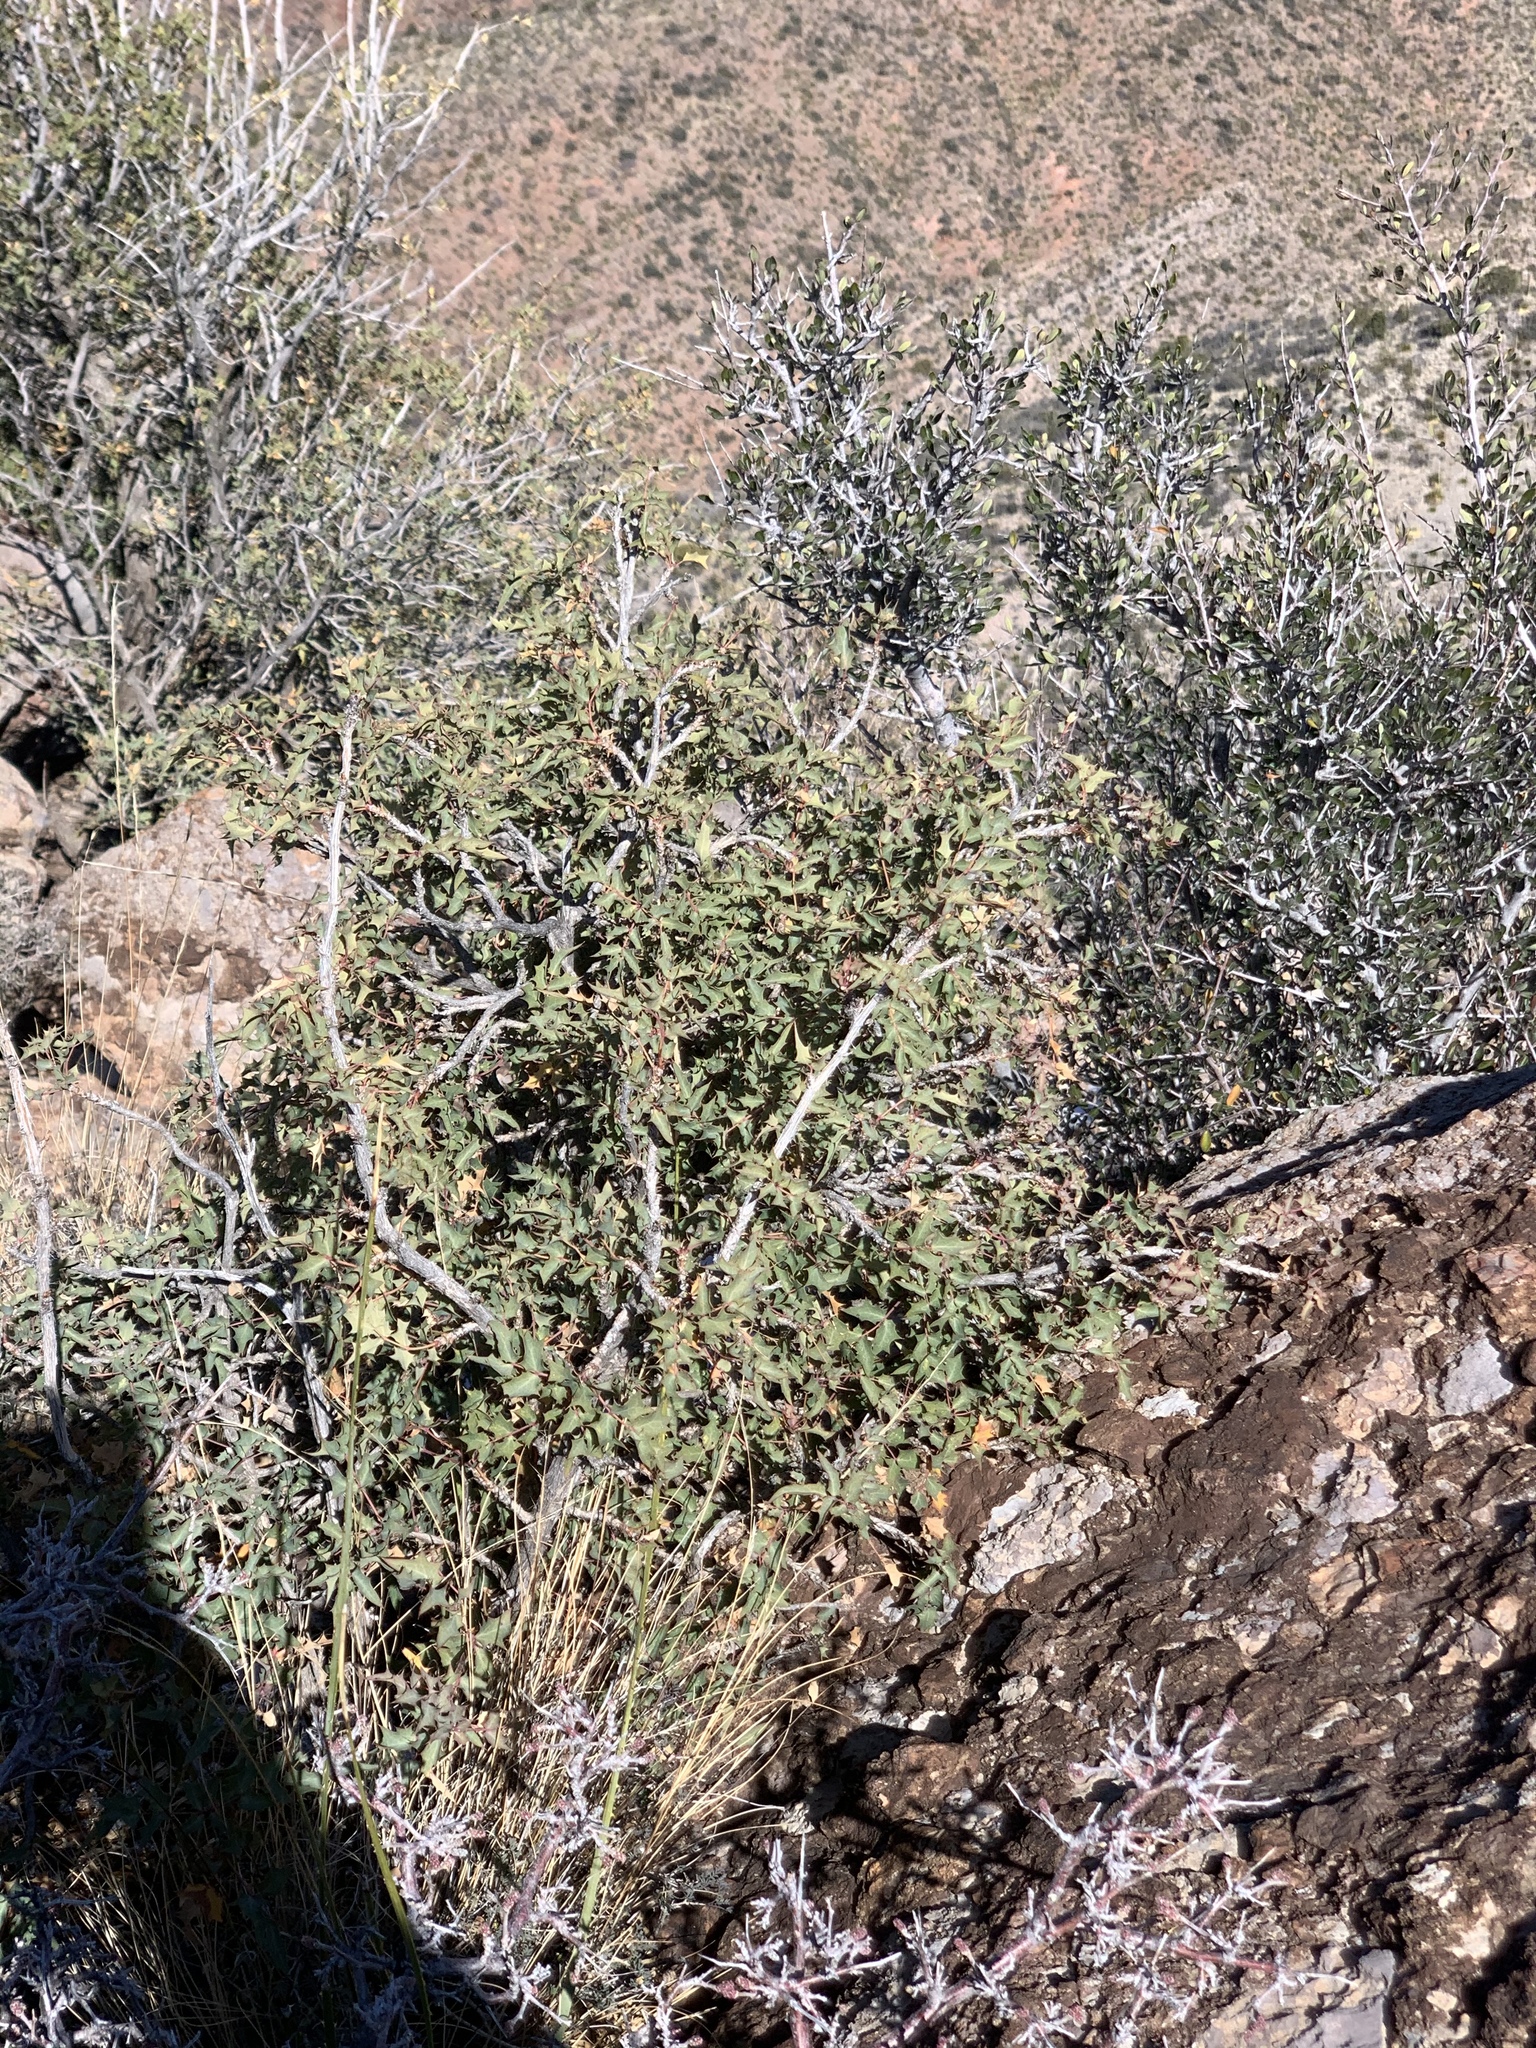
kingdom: Plantae
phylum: Tracheophyta
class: Magnoliopsida
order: Ranunculales
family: Berberidaceae
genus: Alloberberis
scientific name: Alloberberis haematocarpa
